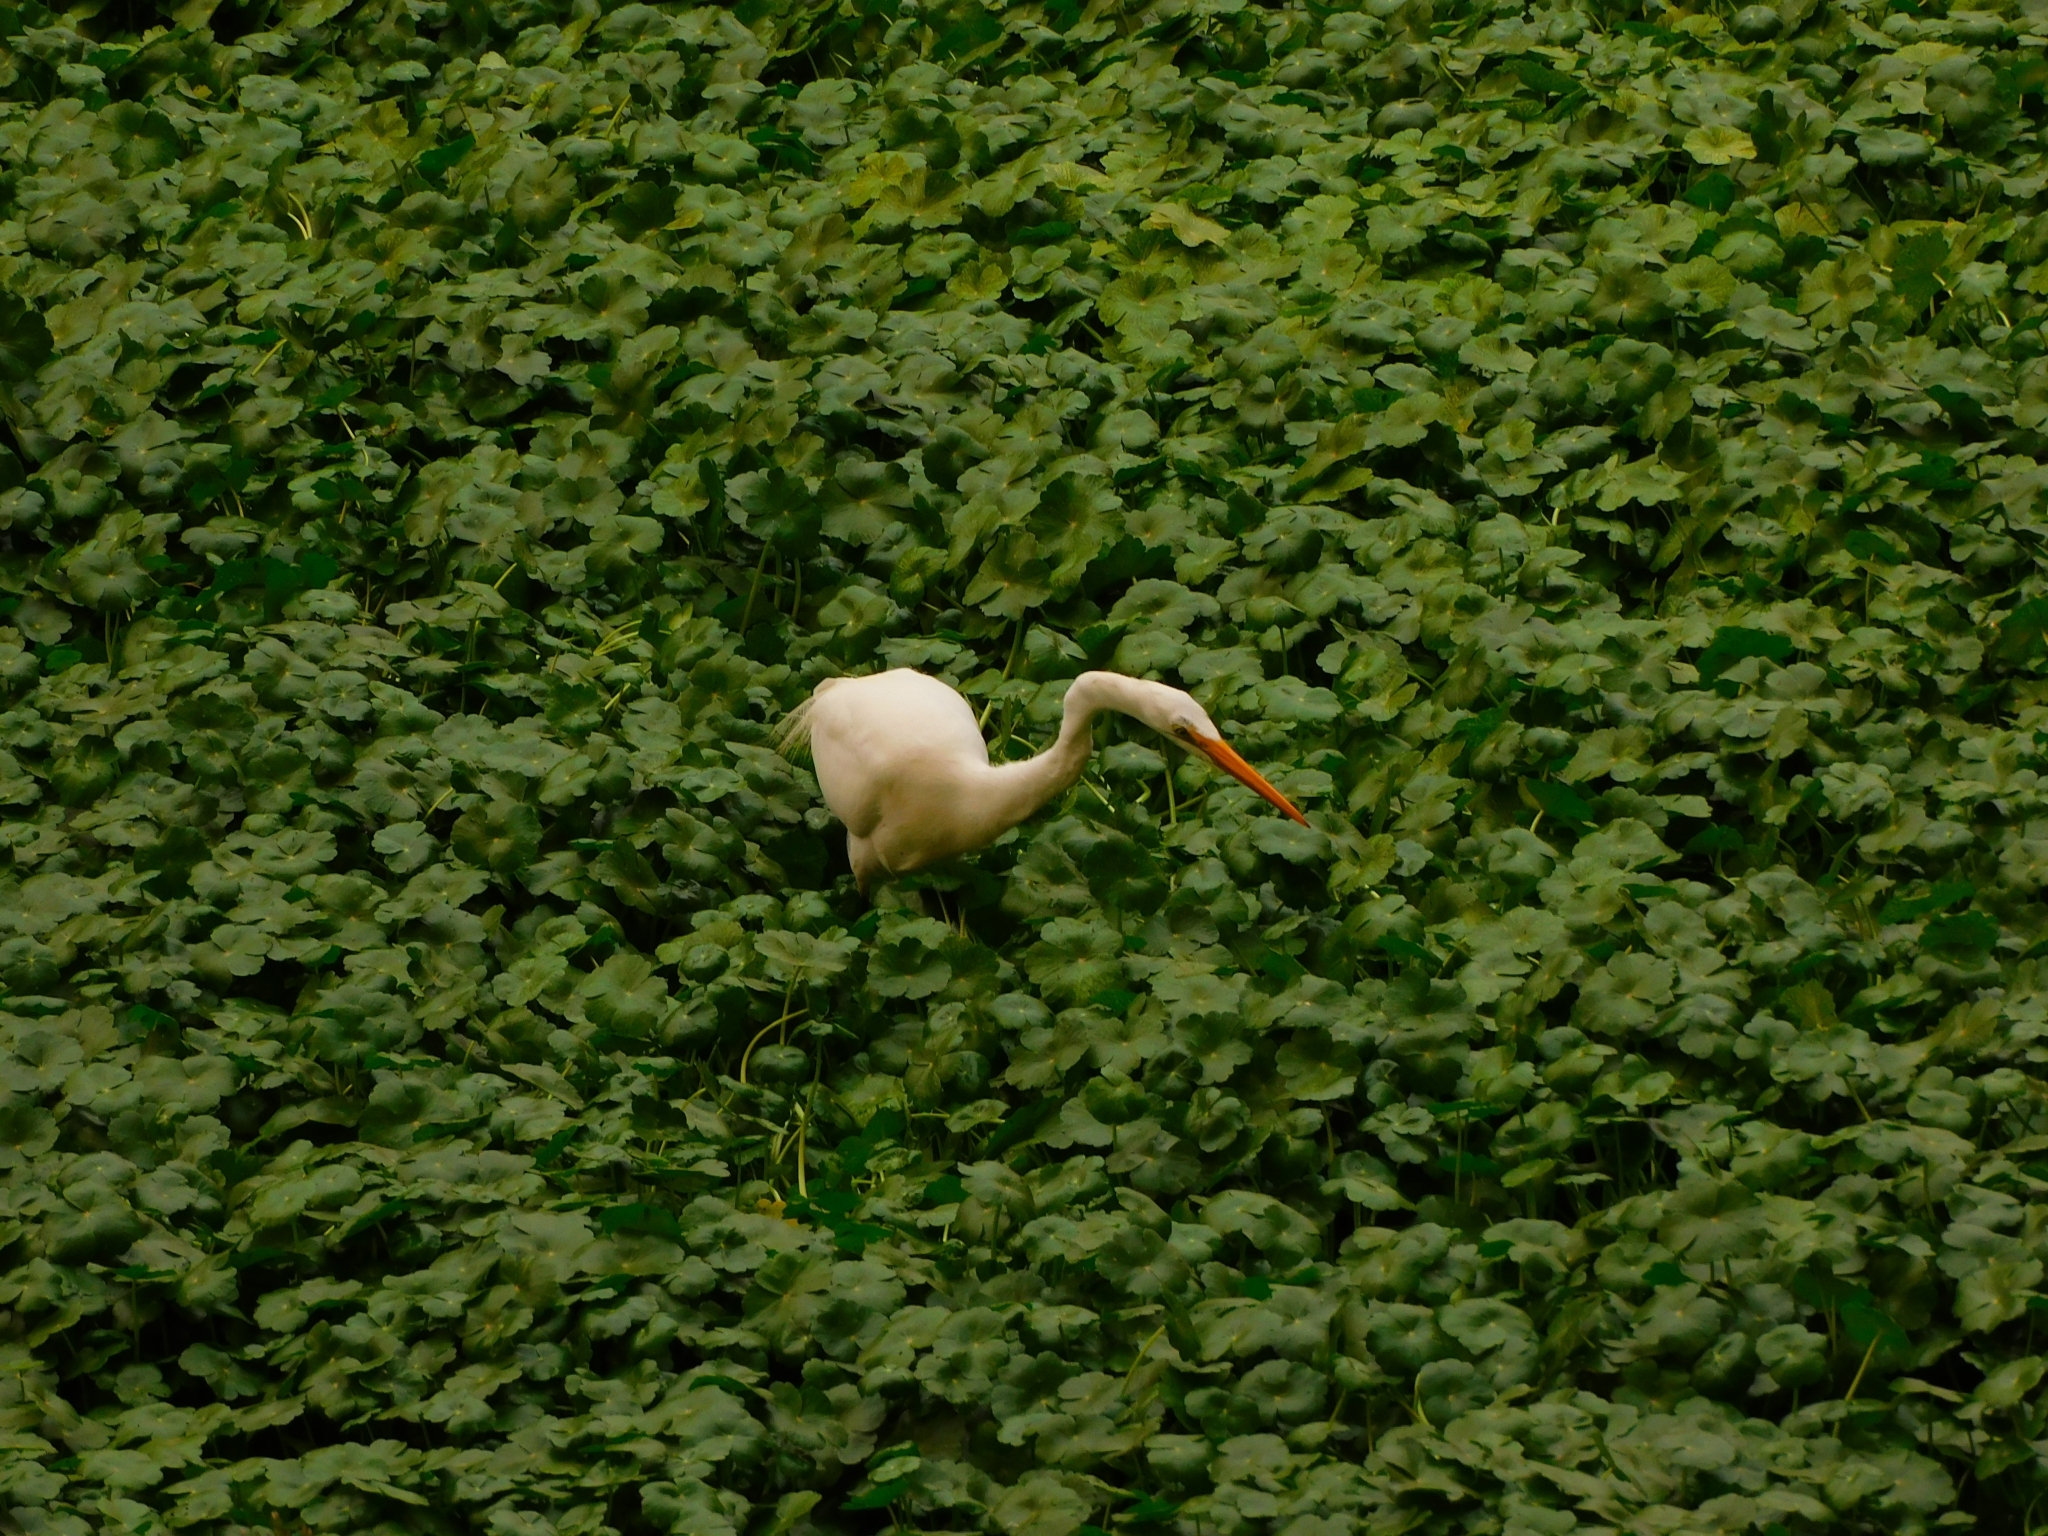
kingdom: Animalia
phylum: Chordata
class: Aves
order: Pelecaniformes
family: Ardeidae
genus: Ardea
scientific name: Ardea alba
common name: Great egret
